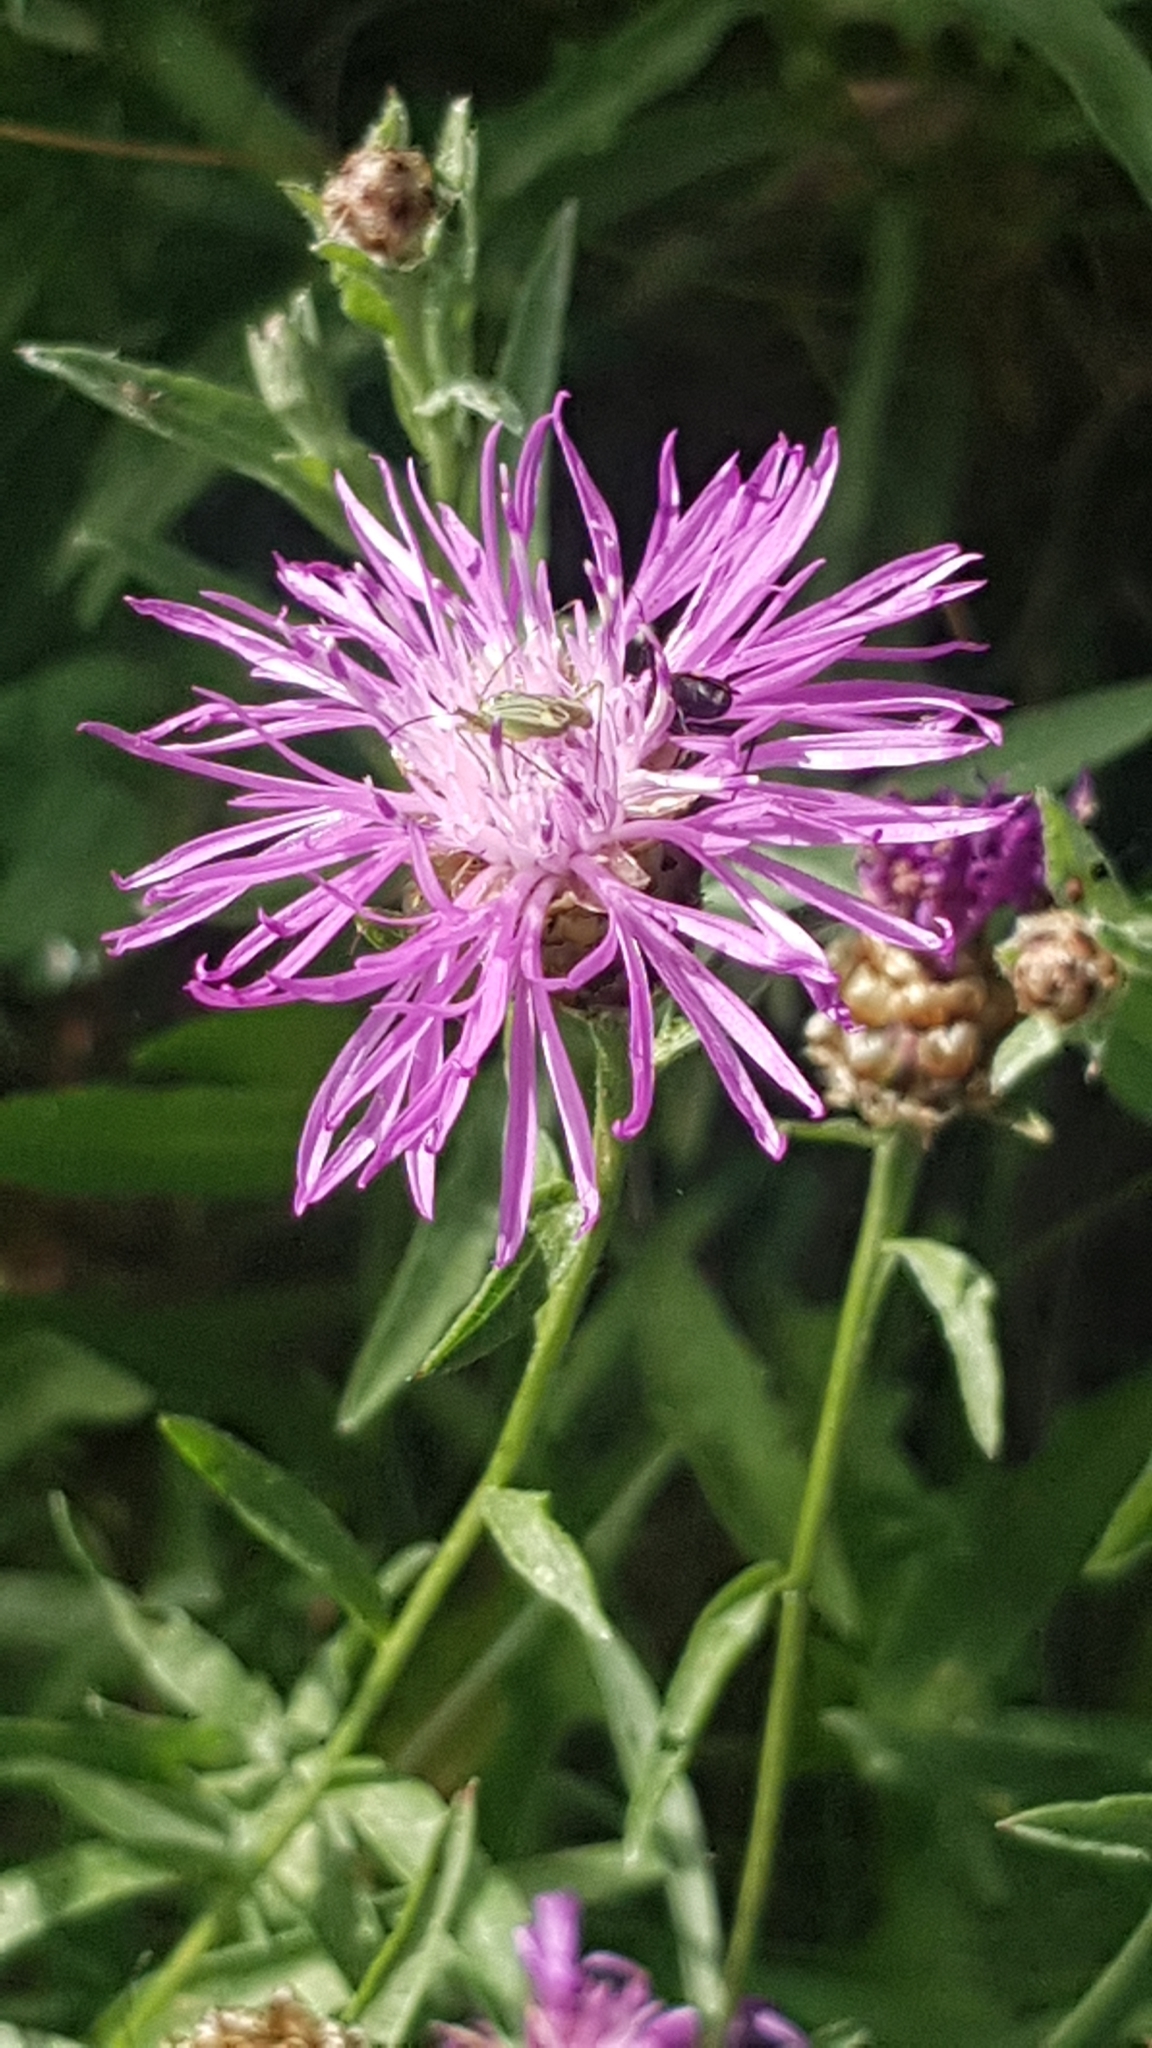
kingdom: Plantae
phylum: Tracheophyta
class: Magnoliopsida
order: Asterales
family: Asteraceae
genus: Centaurea
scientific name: Centaurea jacea
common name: Brown knapweed
